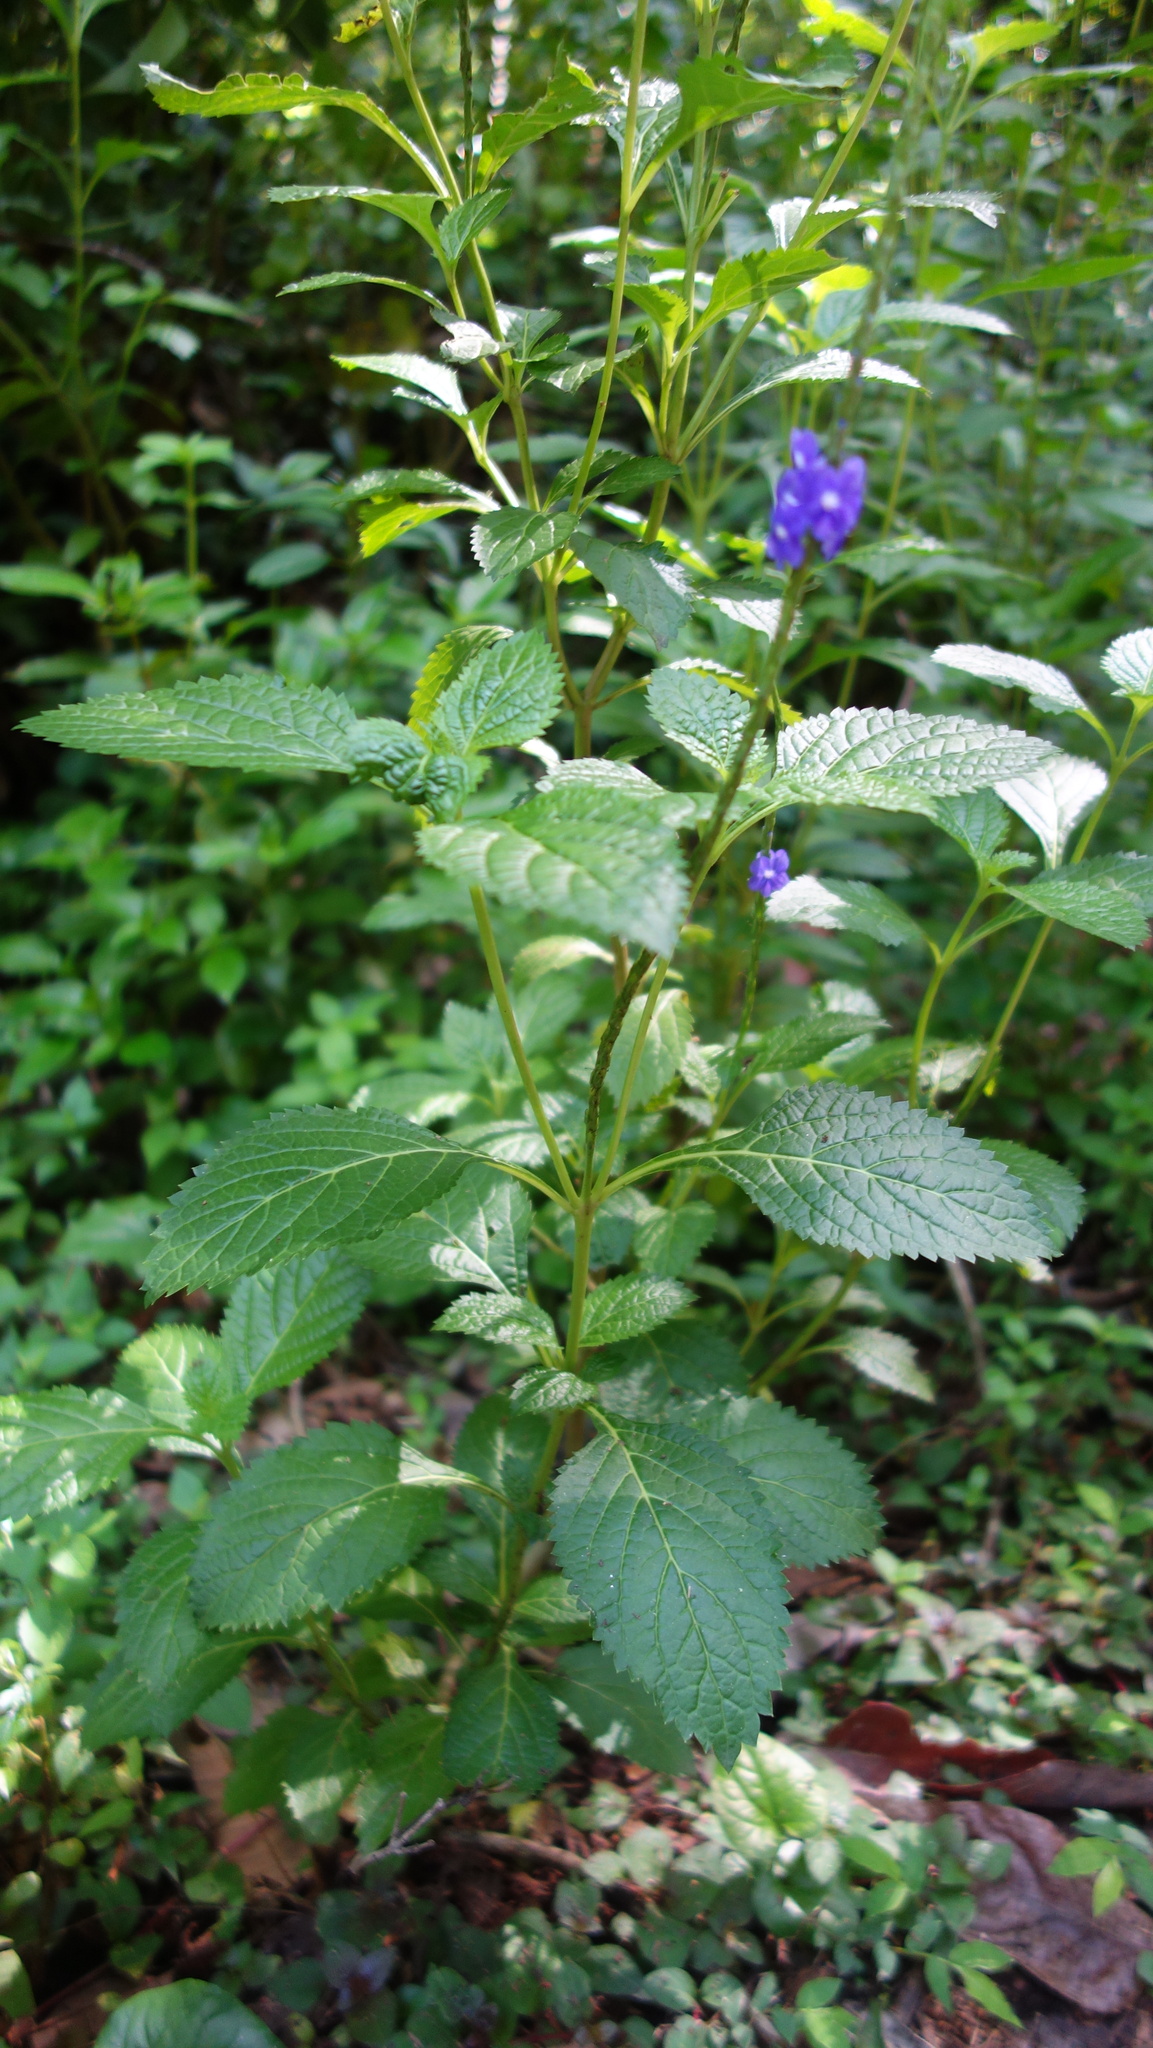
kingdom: Plantae
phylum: Tracheophyta
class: Magnoliopsida
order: Lamiales
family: Verbenaceae
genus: Stachytarpheta
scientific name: Stachytarpheta jamaicensis
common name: Light-blue snakeweed
